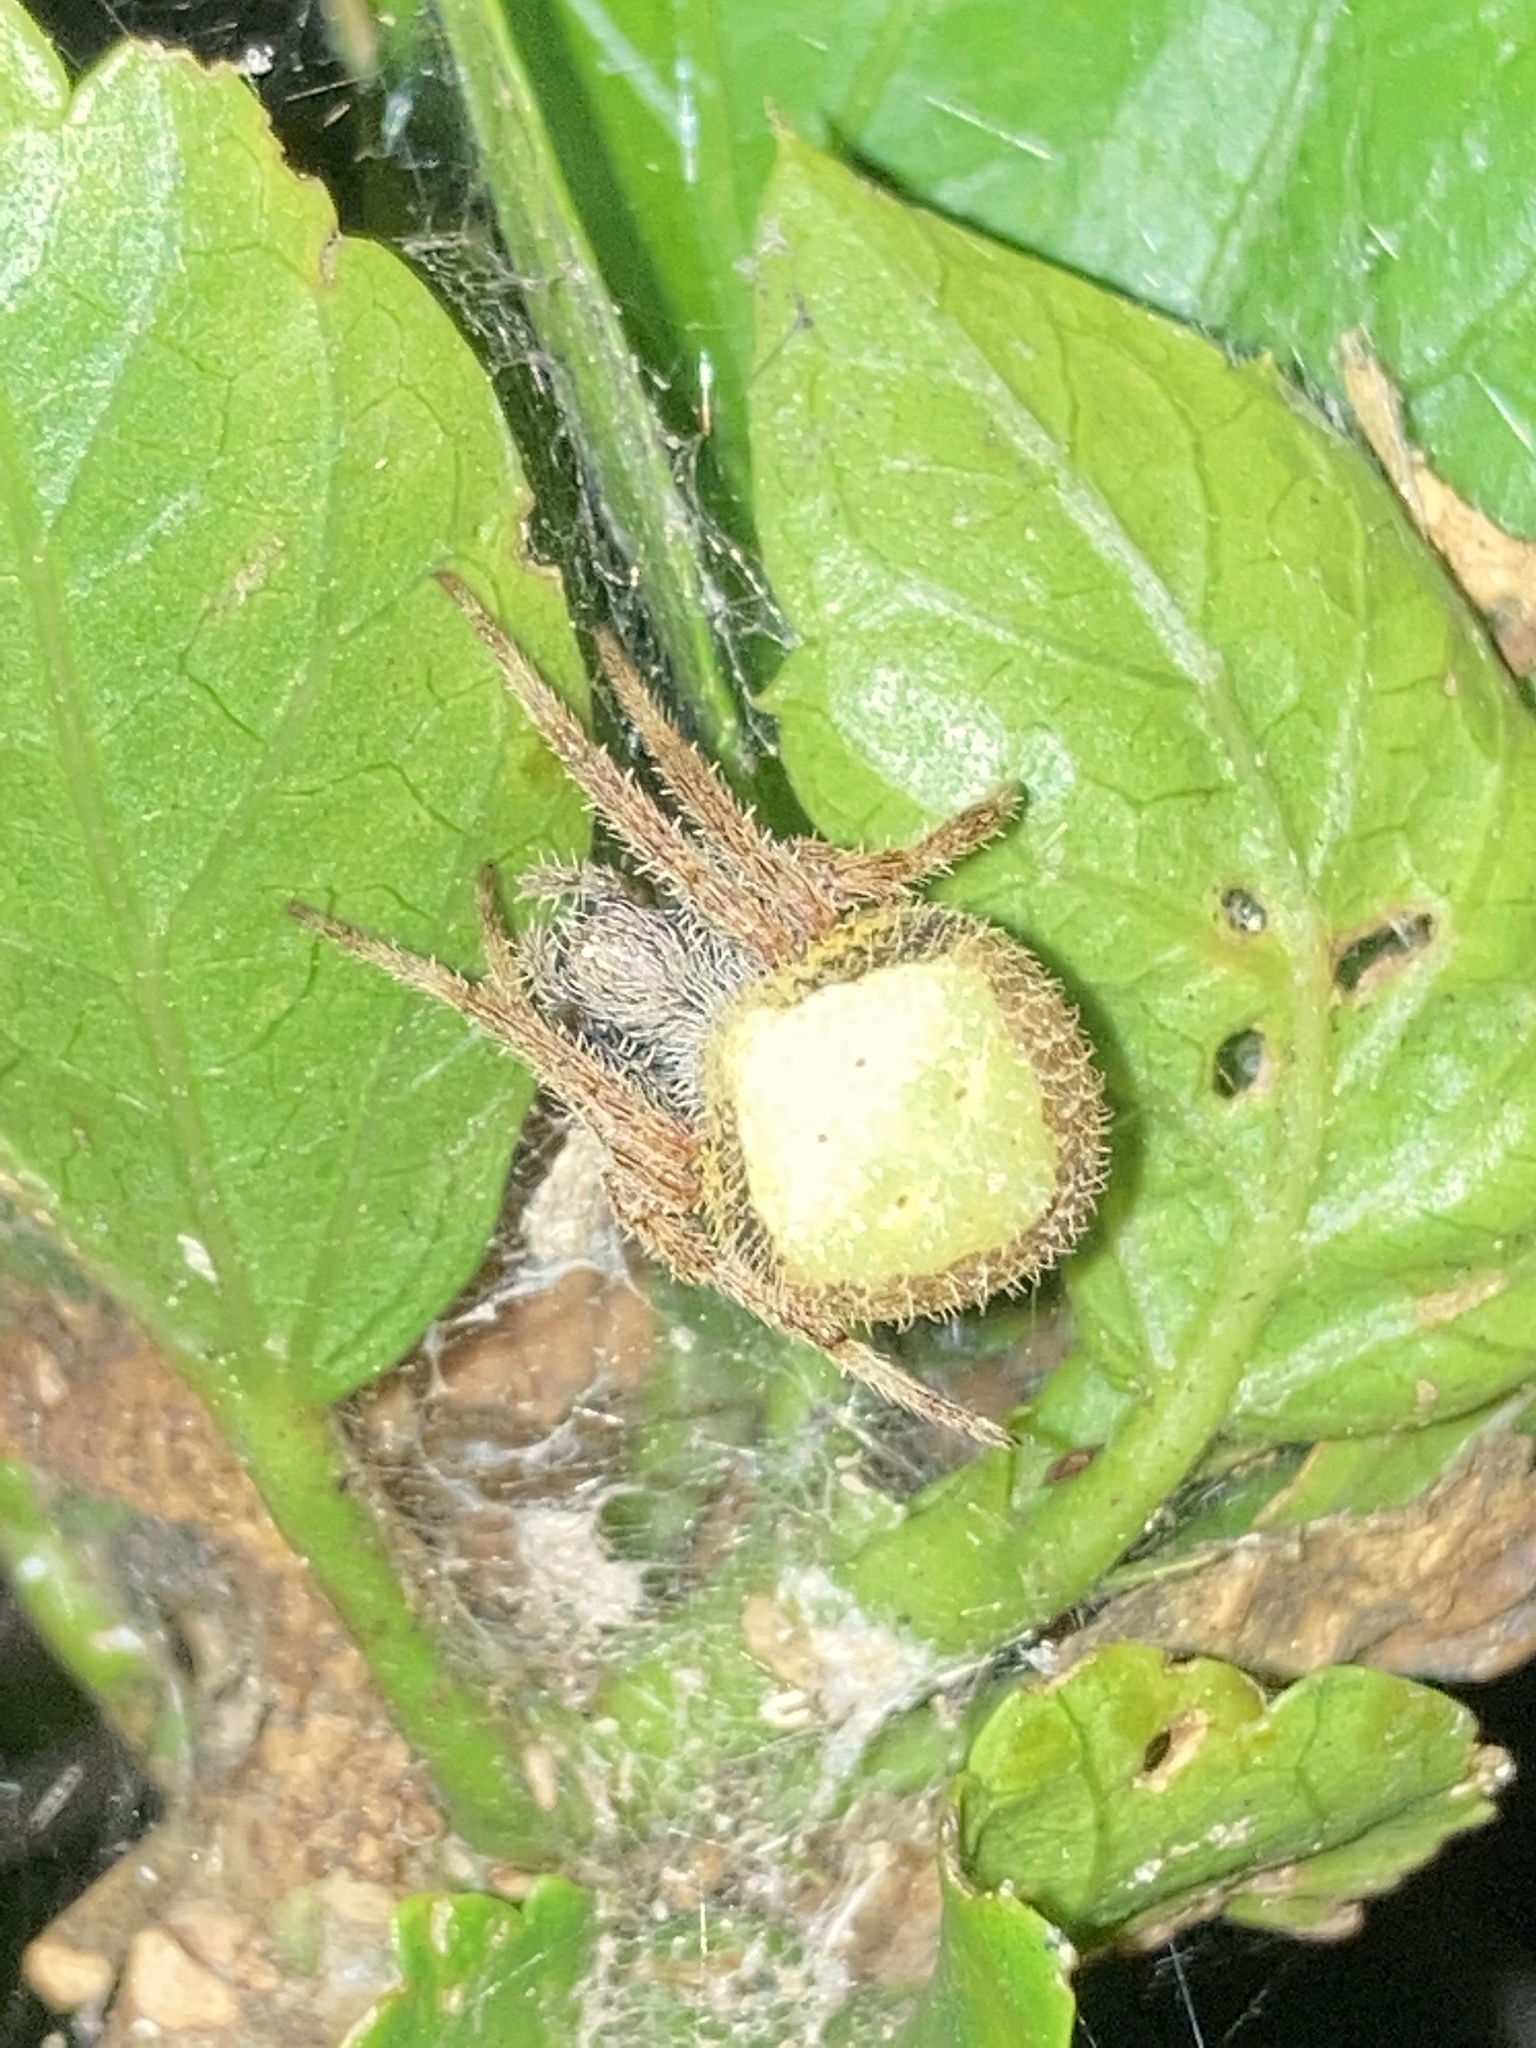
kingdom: Animalia
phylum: Arthropoda
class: Arachnida
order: Araneae
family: Araneidae
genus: Eriophora
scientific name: Eriophora ravilla
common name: Orb weavers
